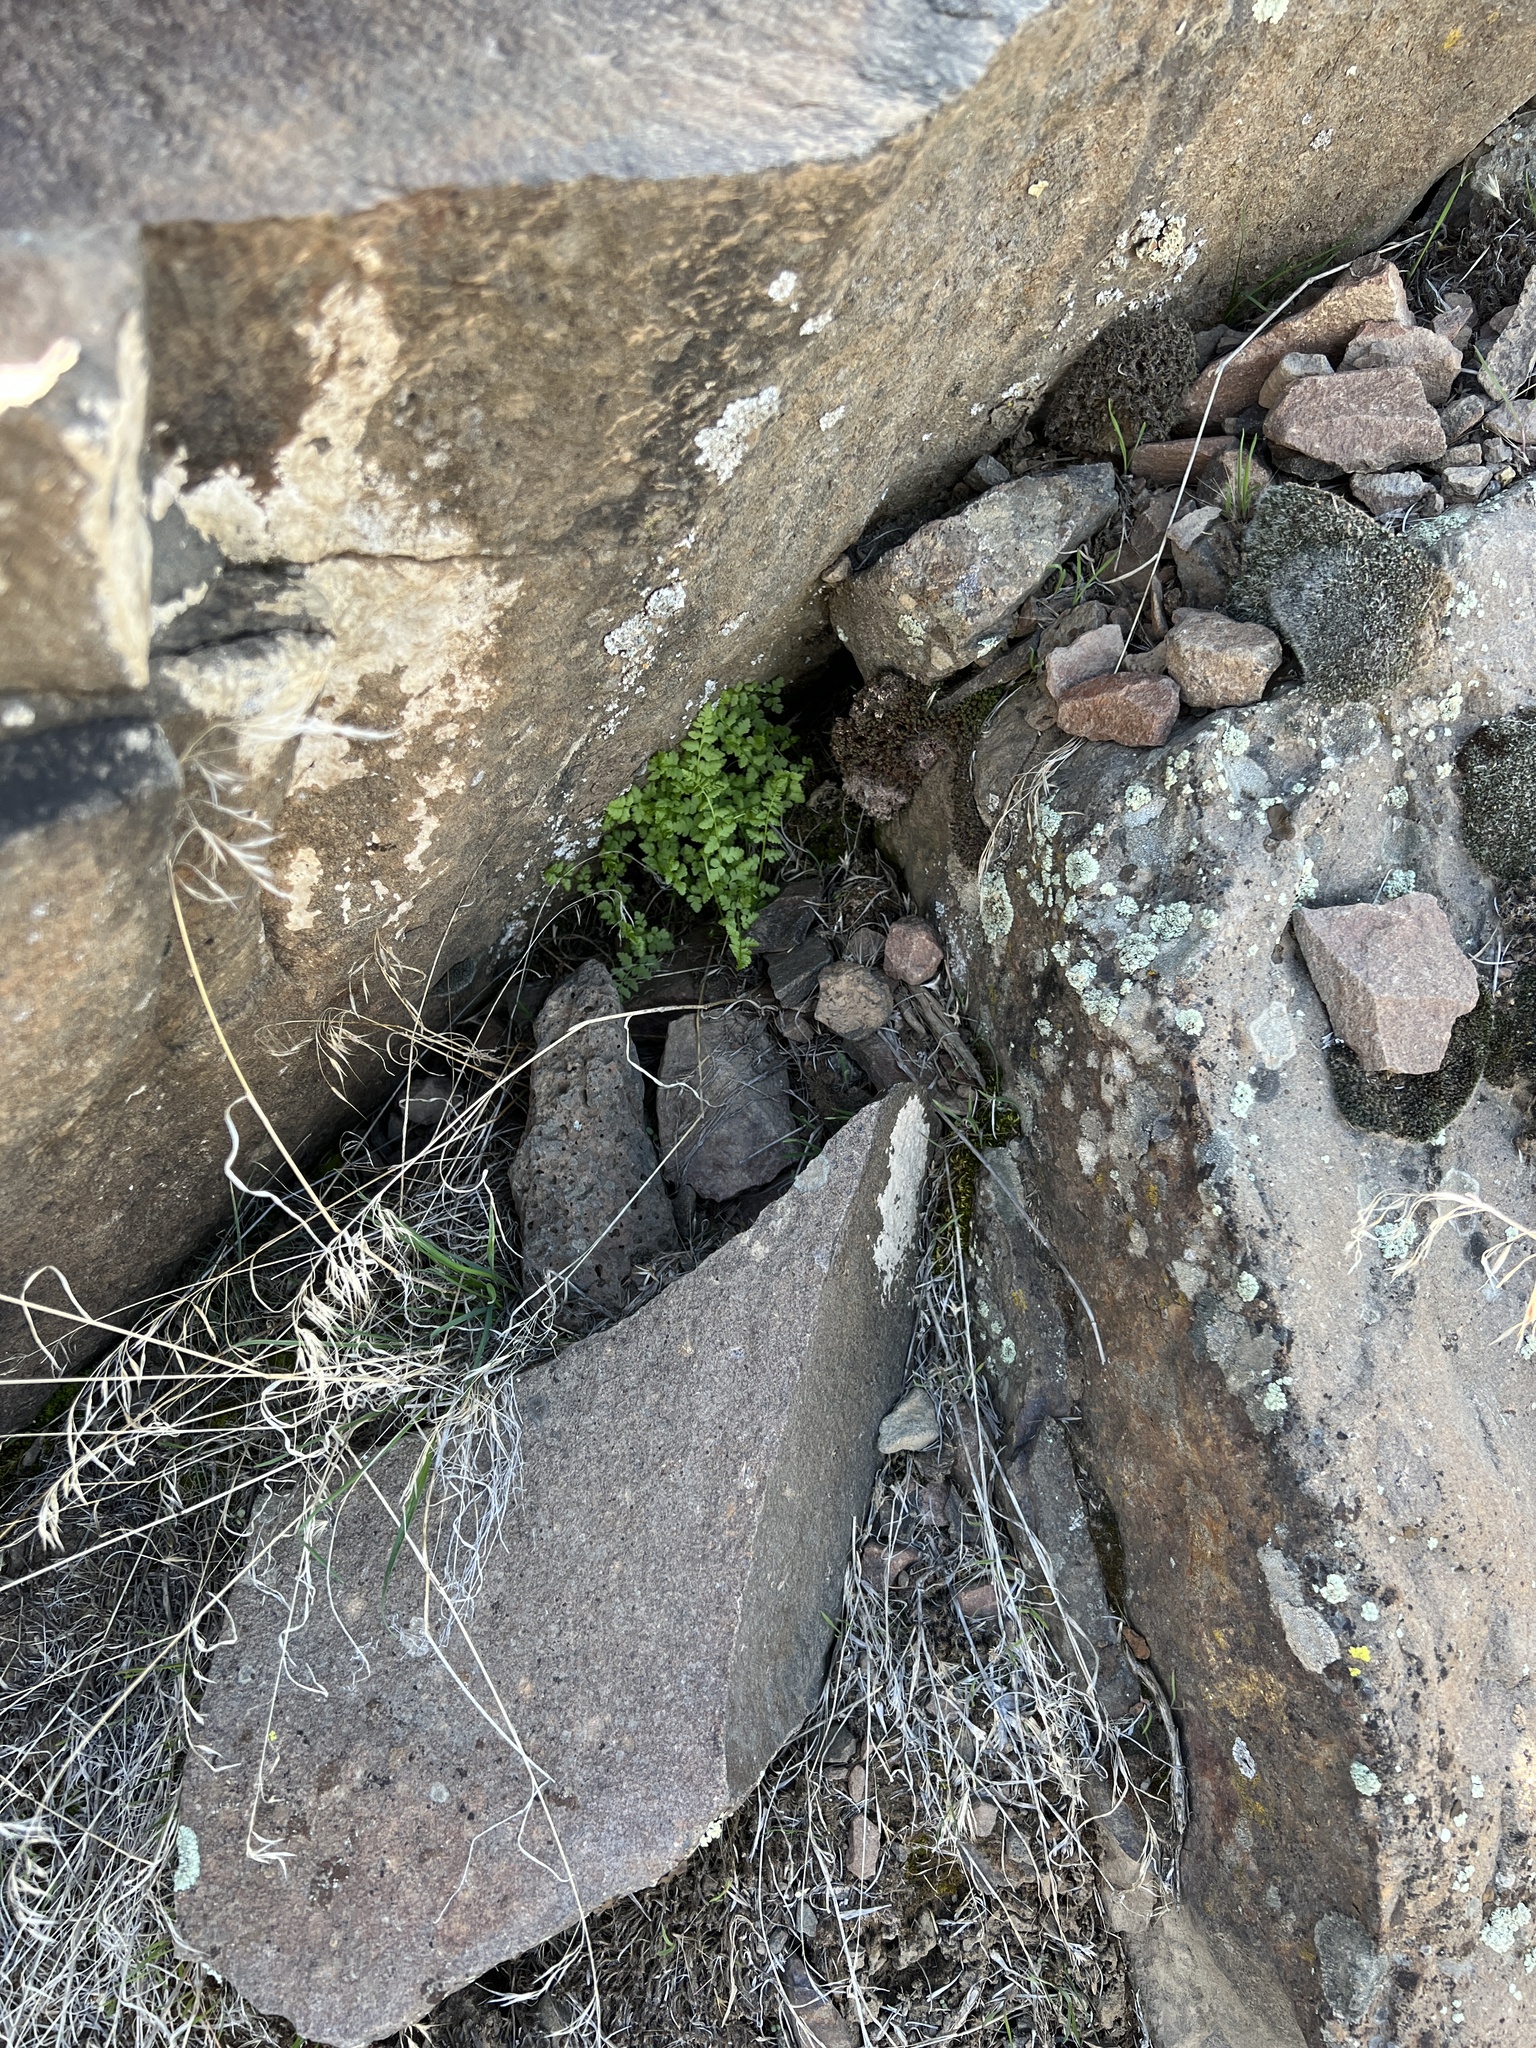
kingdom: Plantae
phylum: Tracheophyta
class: Polypodiopsida
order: Polypodiales
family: Cystopteridaceae
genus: Cystopteris
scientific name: Cystopteris fragilis
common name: Brittle bladder fern
